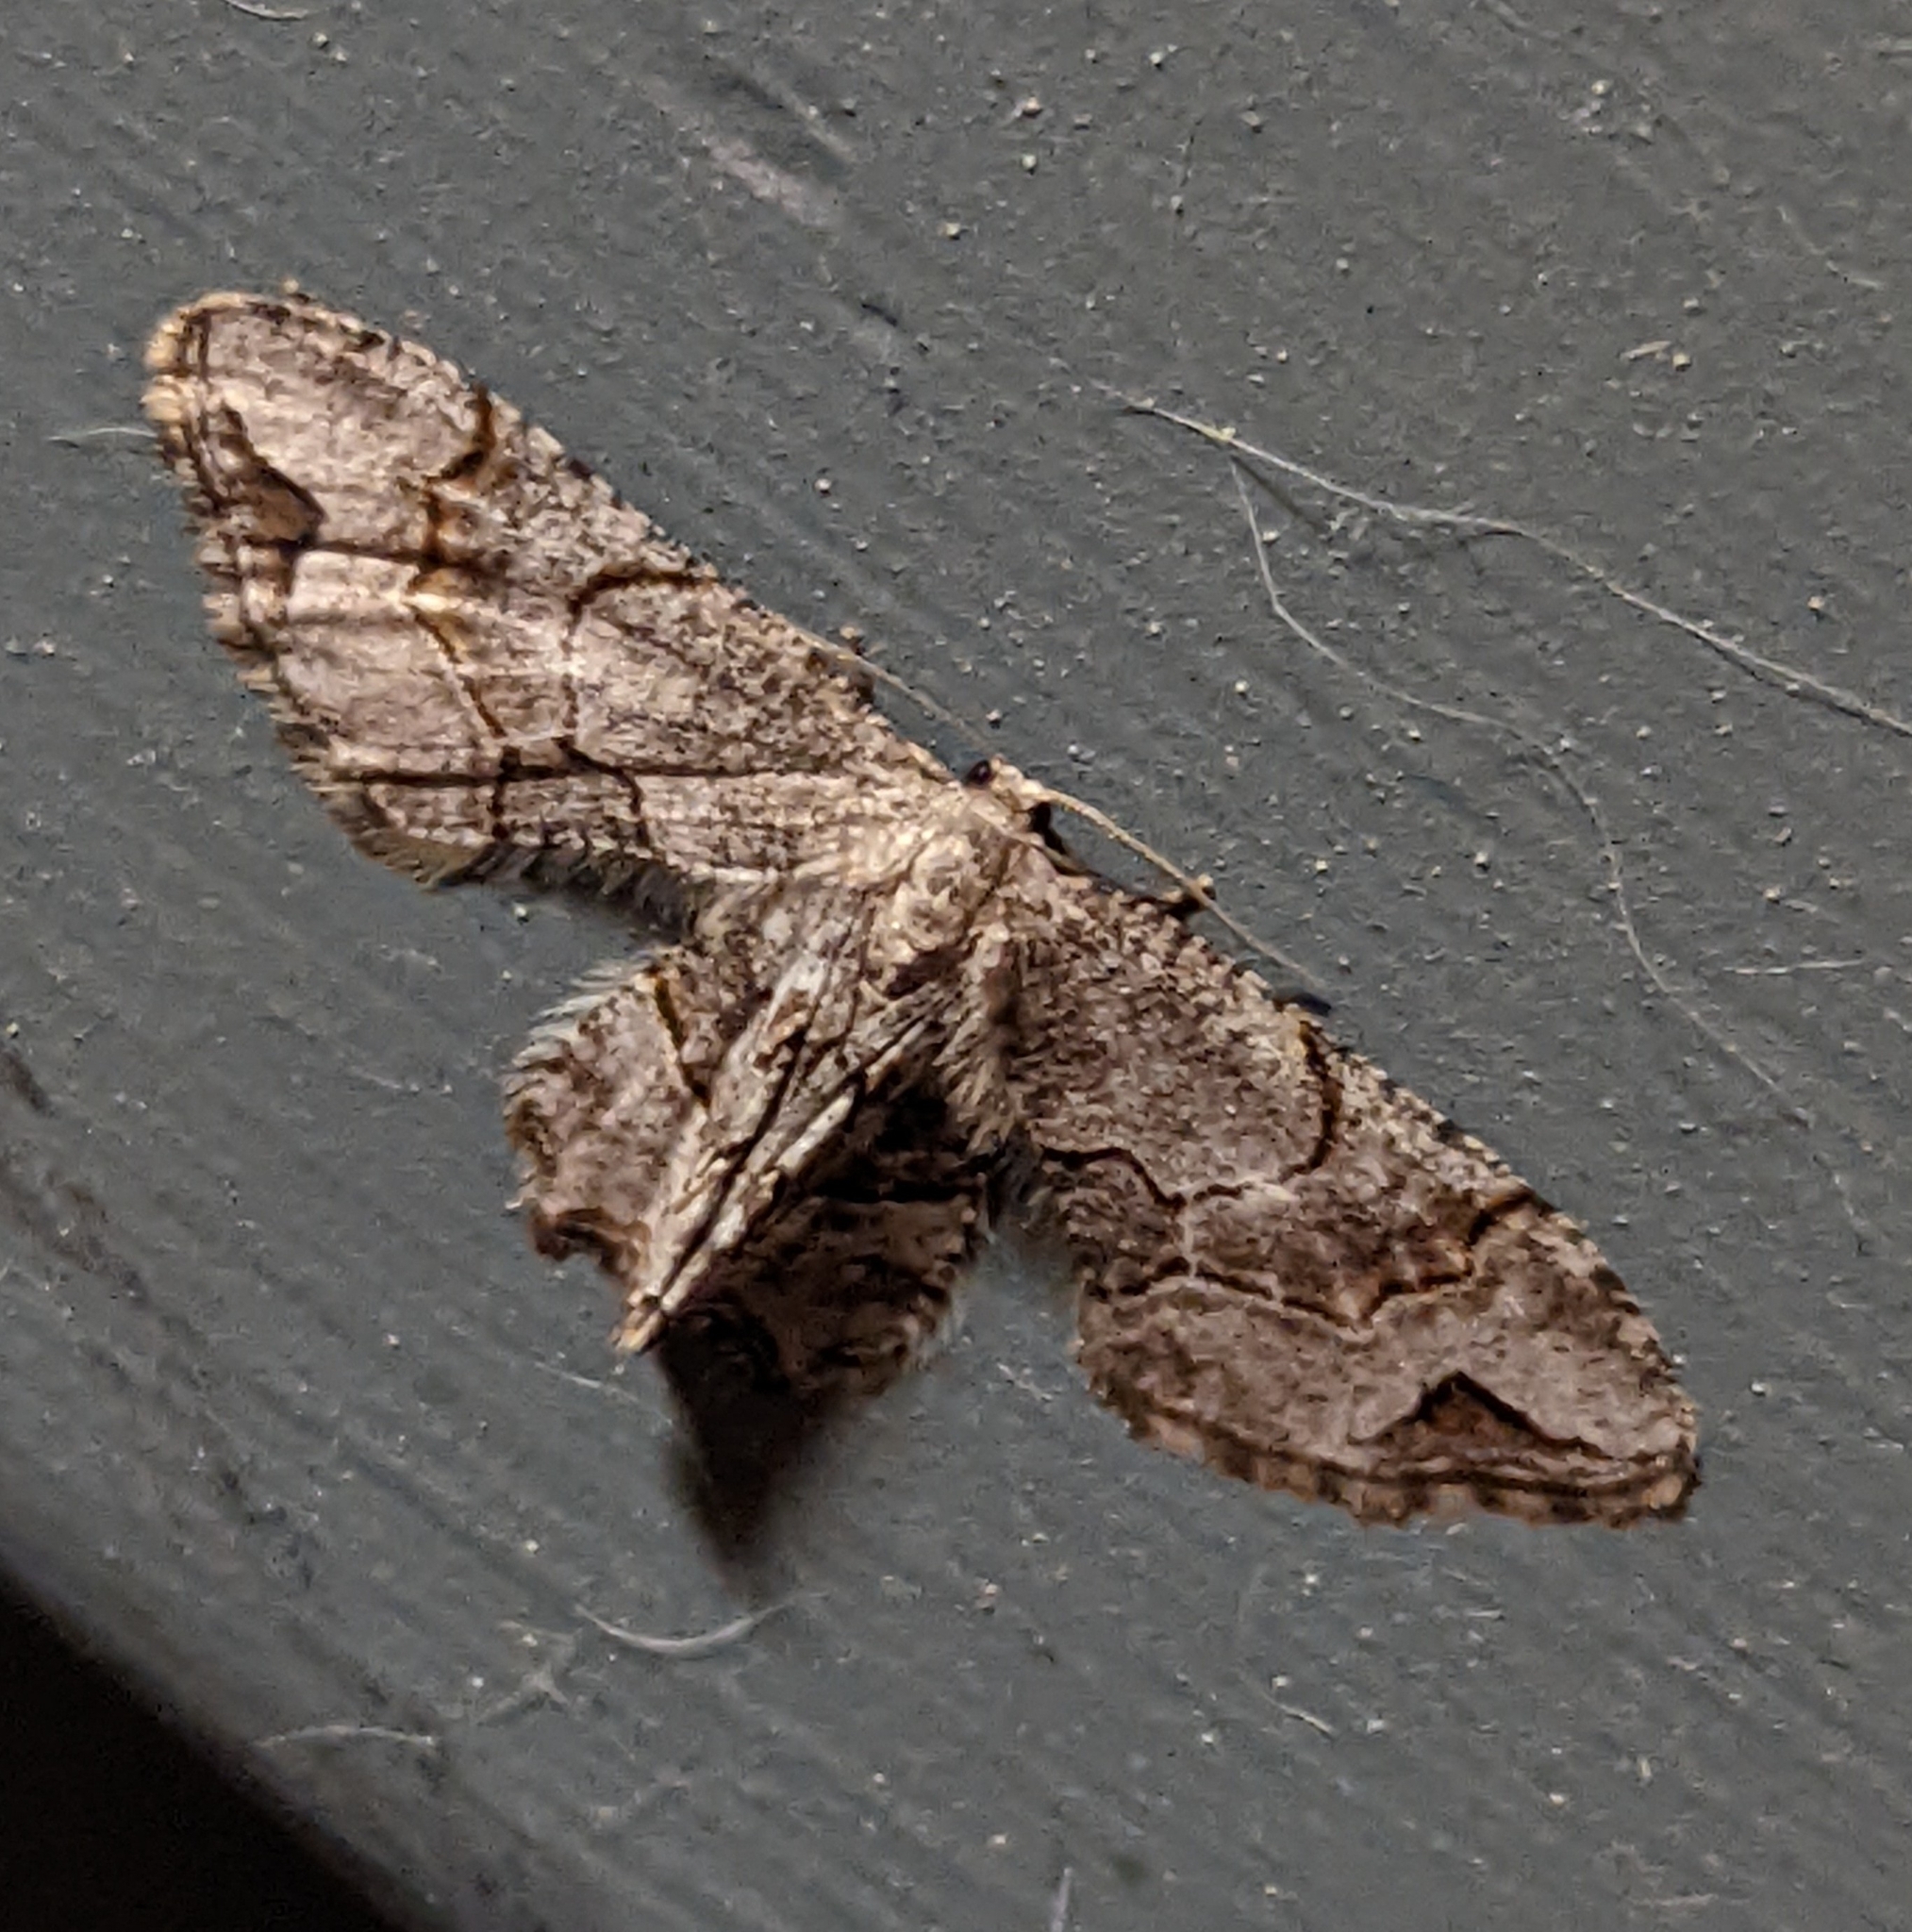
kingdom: Animalia
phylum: Arthropoda
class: Insecta
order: Lepidoptera
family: Uraniidae
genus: Epiplema
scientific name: Epiplema Callizzia amorata
